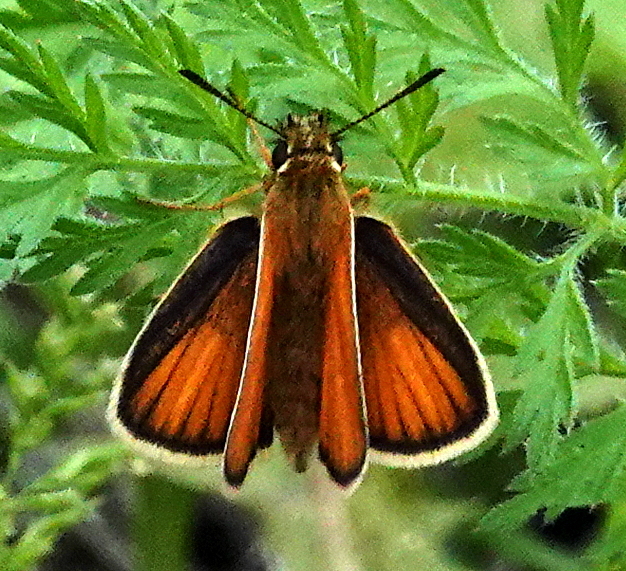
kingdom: Animalia
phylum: Arthropoda
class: Insecta
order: Lepidoptera
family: Hesperiidae
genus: Thymelicus
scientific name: Thymelicus lineola
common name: Essex skipper
